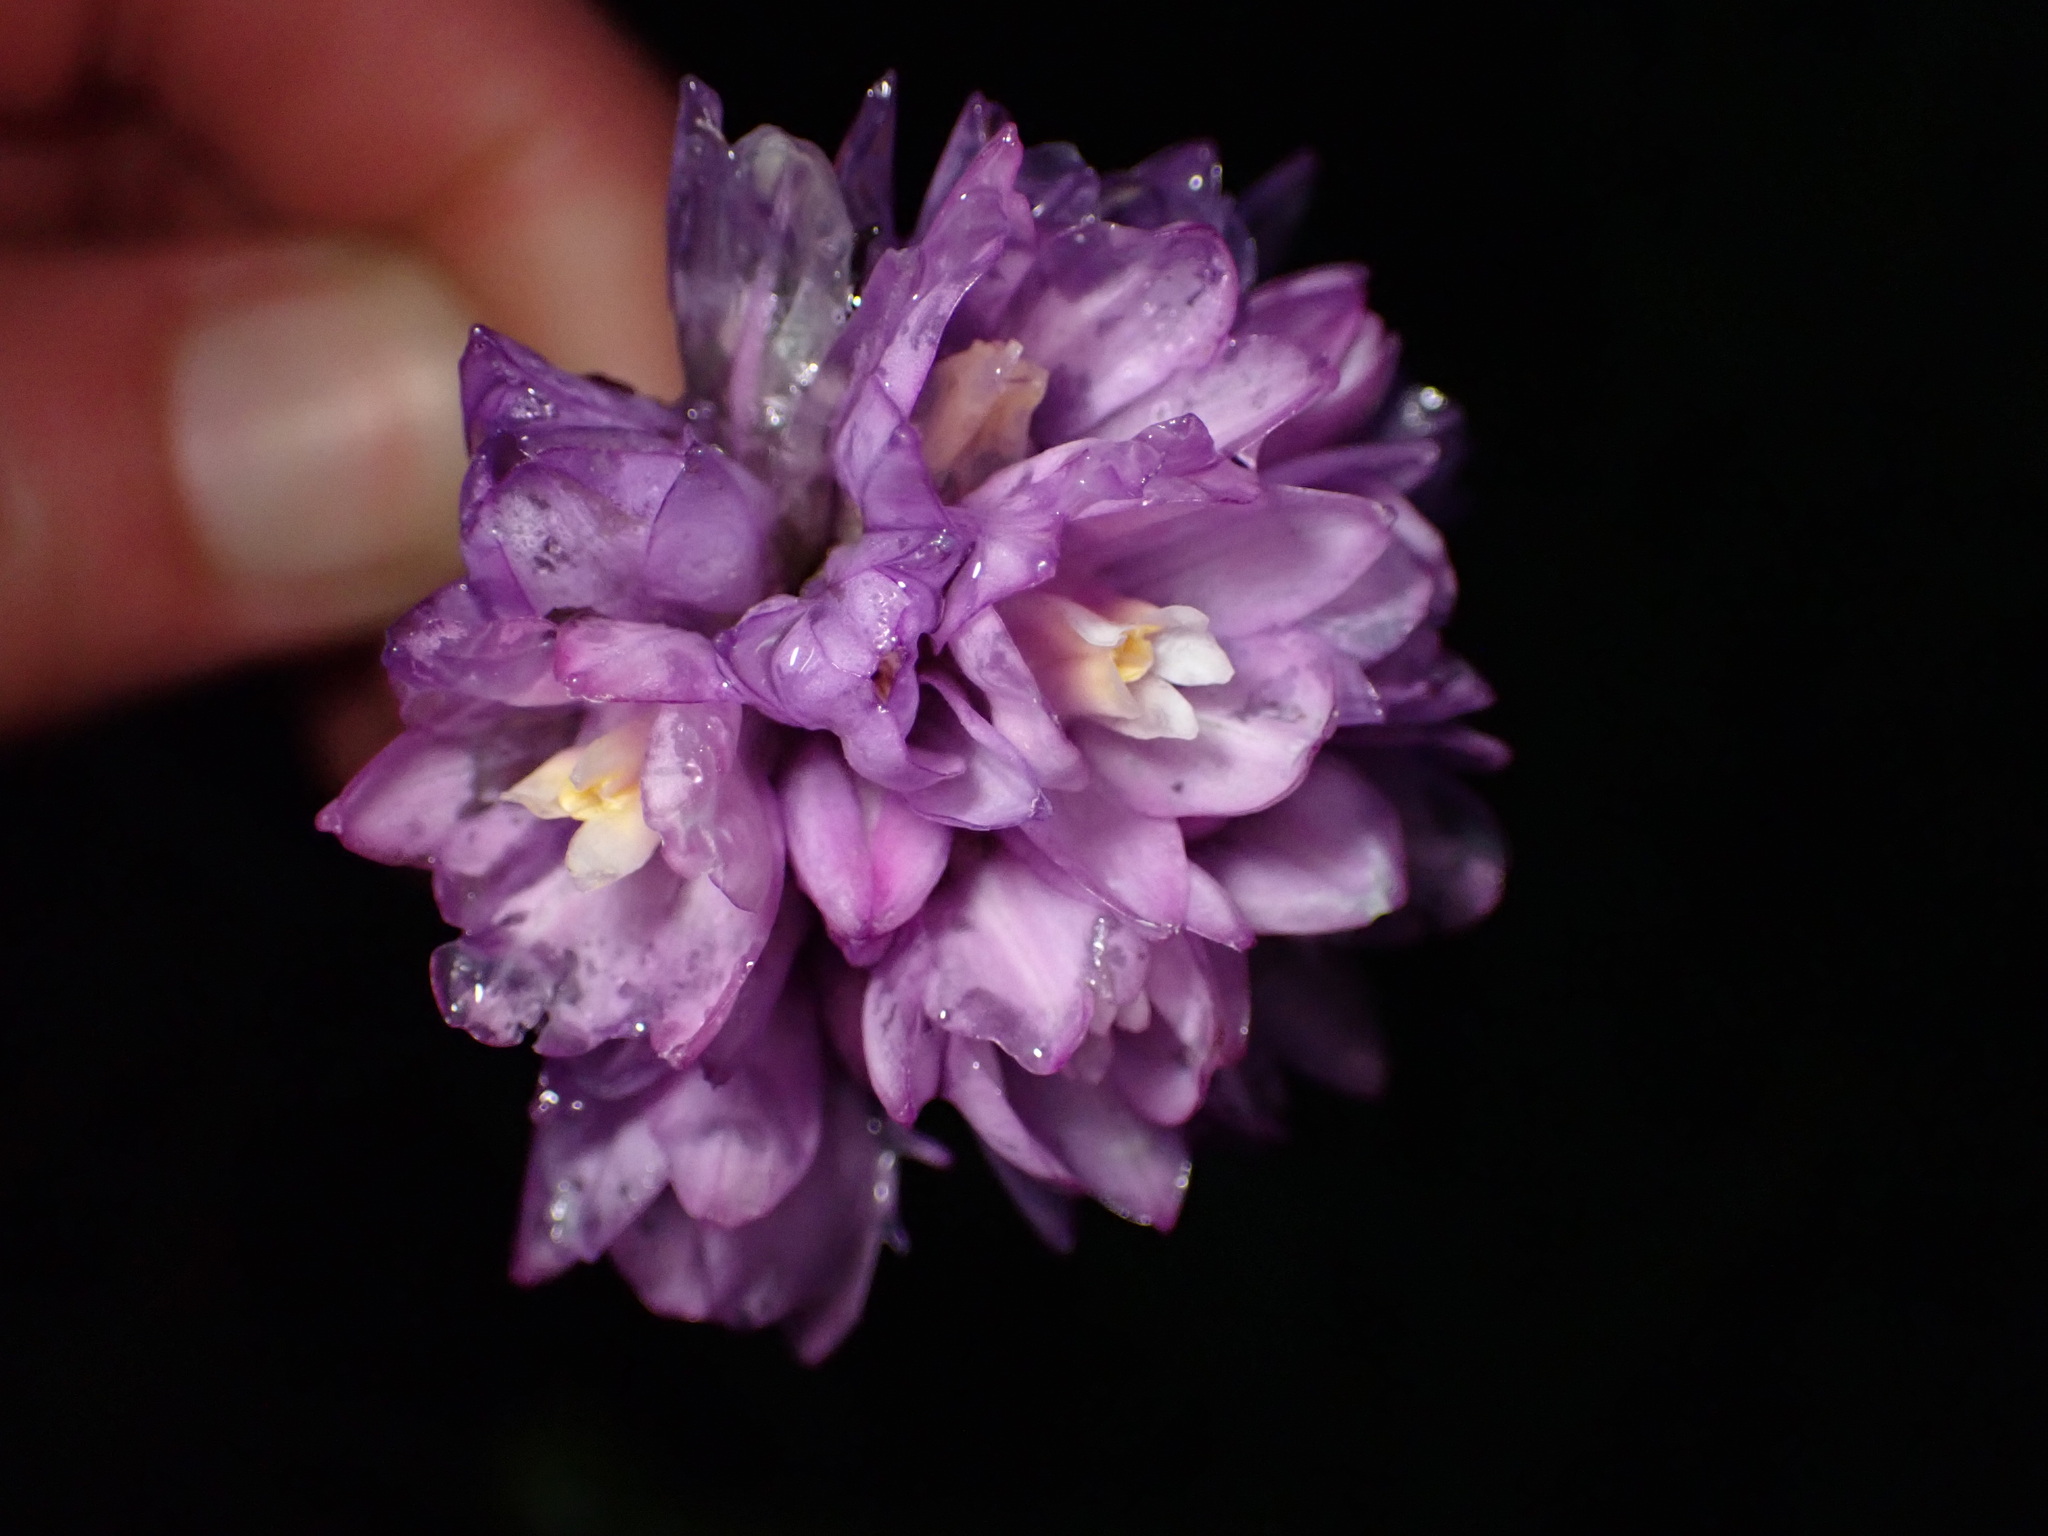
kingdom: Plantae
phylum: Tracheophyta
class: Liliopsida
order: Asparagales
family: Asparagaceae
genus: Dipterostemon
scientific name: Dipterostemon capitatus
